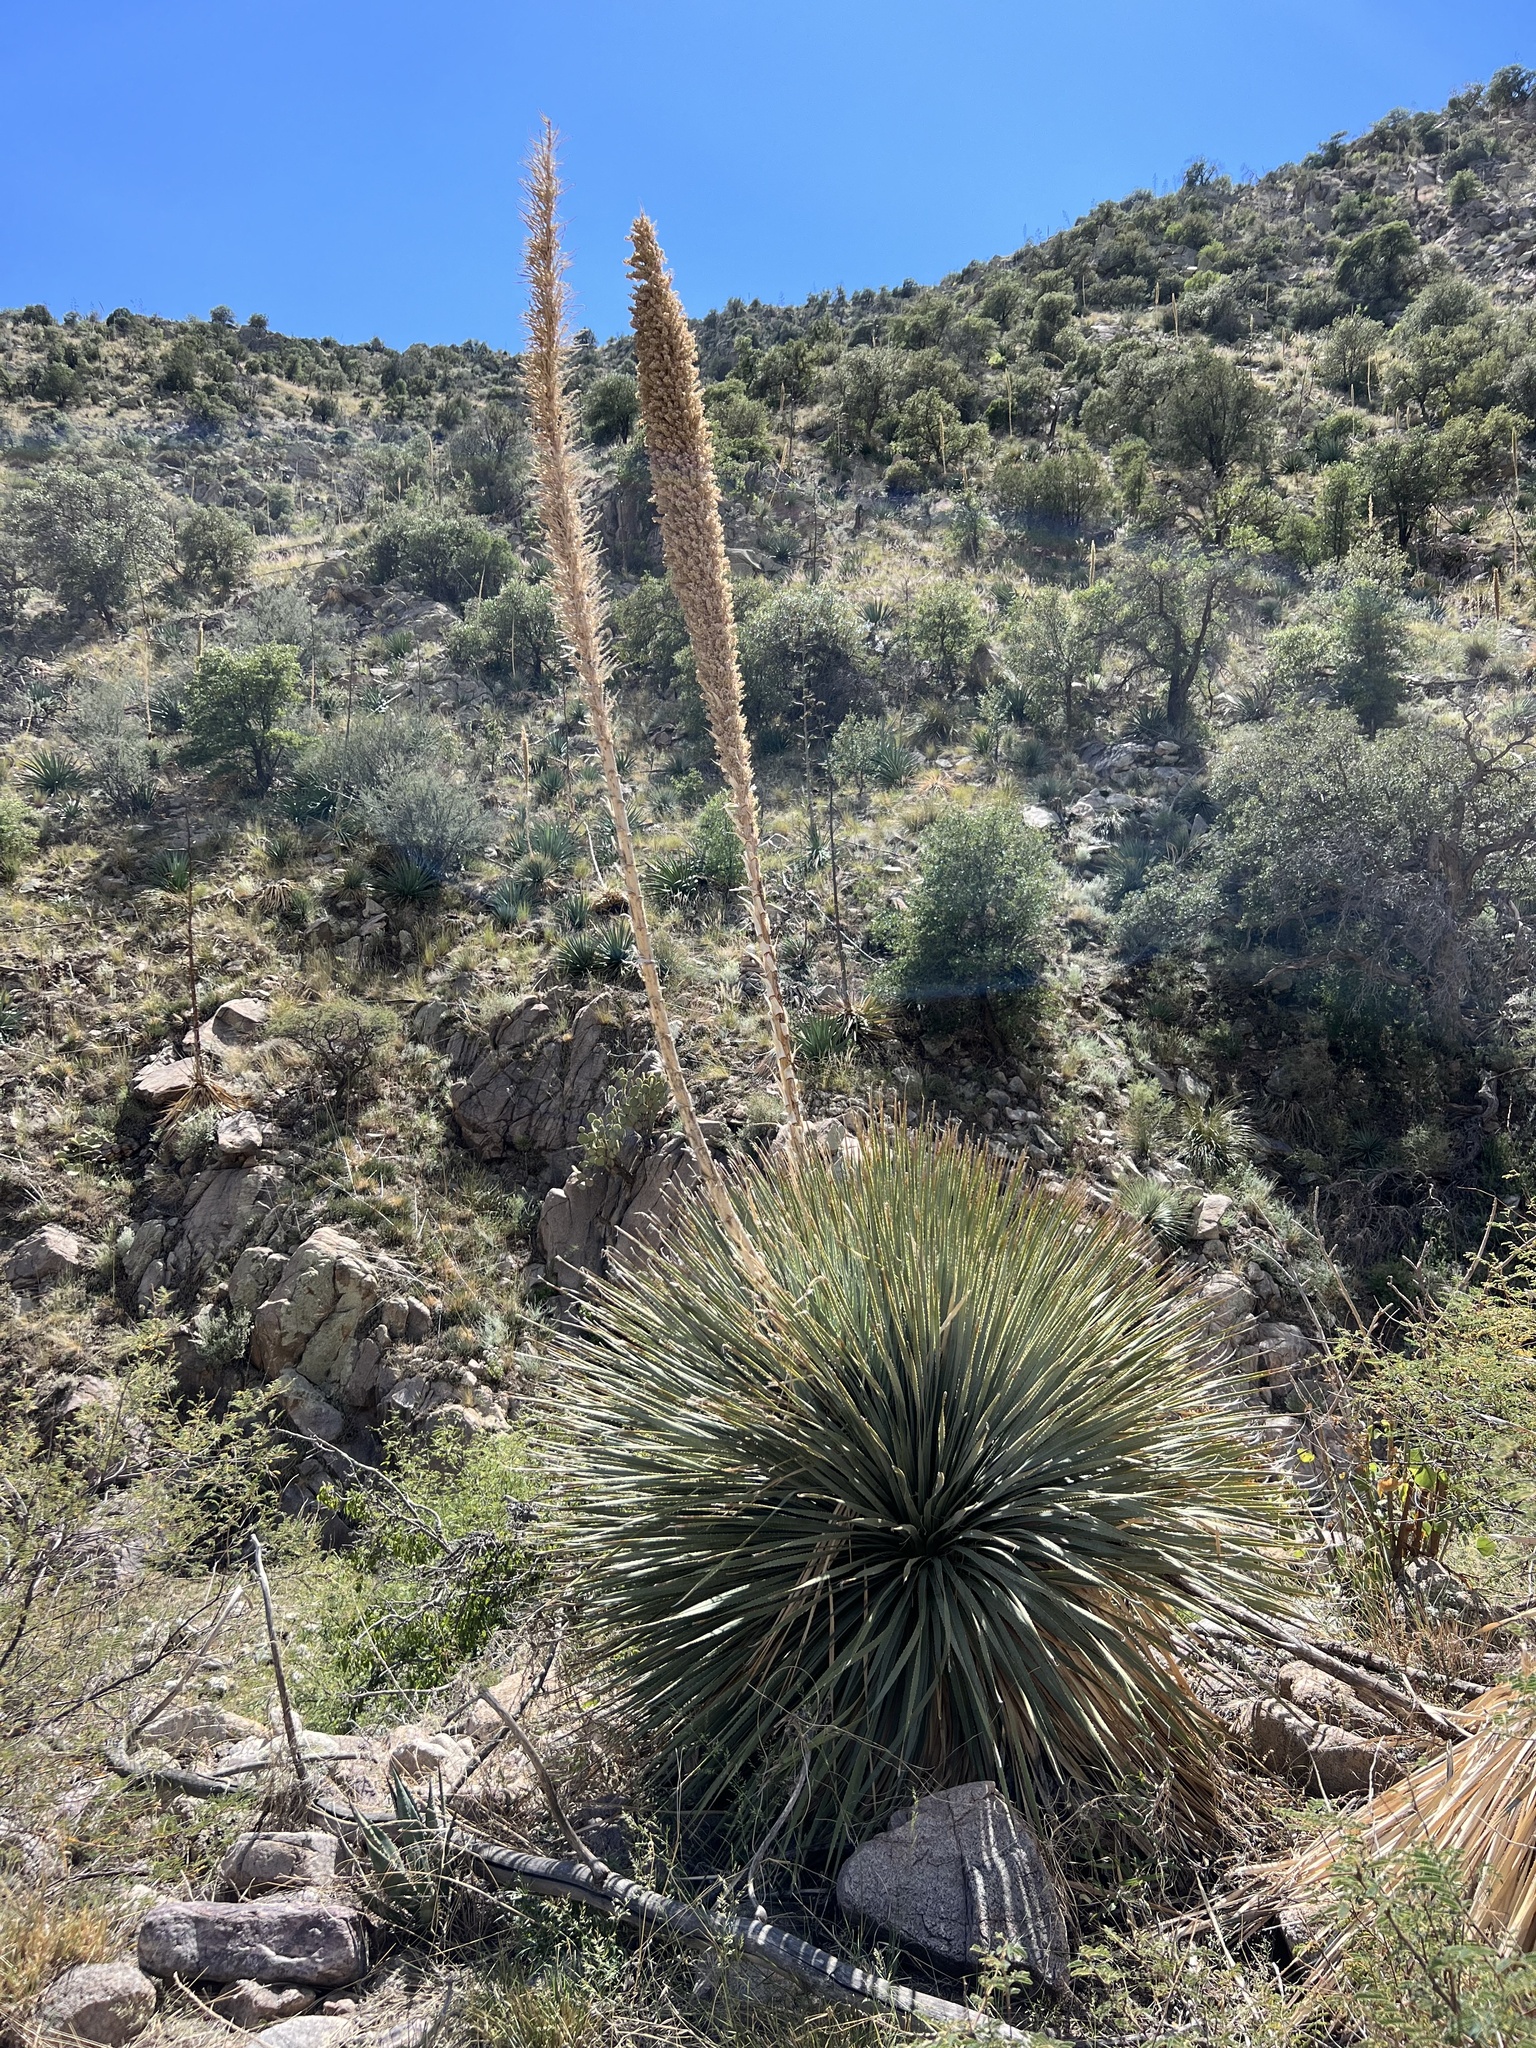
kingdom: Plantae
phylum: Tracheophyta
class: Liliopsida
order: Asparagales
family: Asparagaceae
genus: Dasylirion
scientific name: Dasylirion wheeleri
